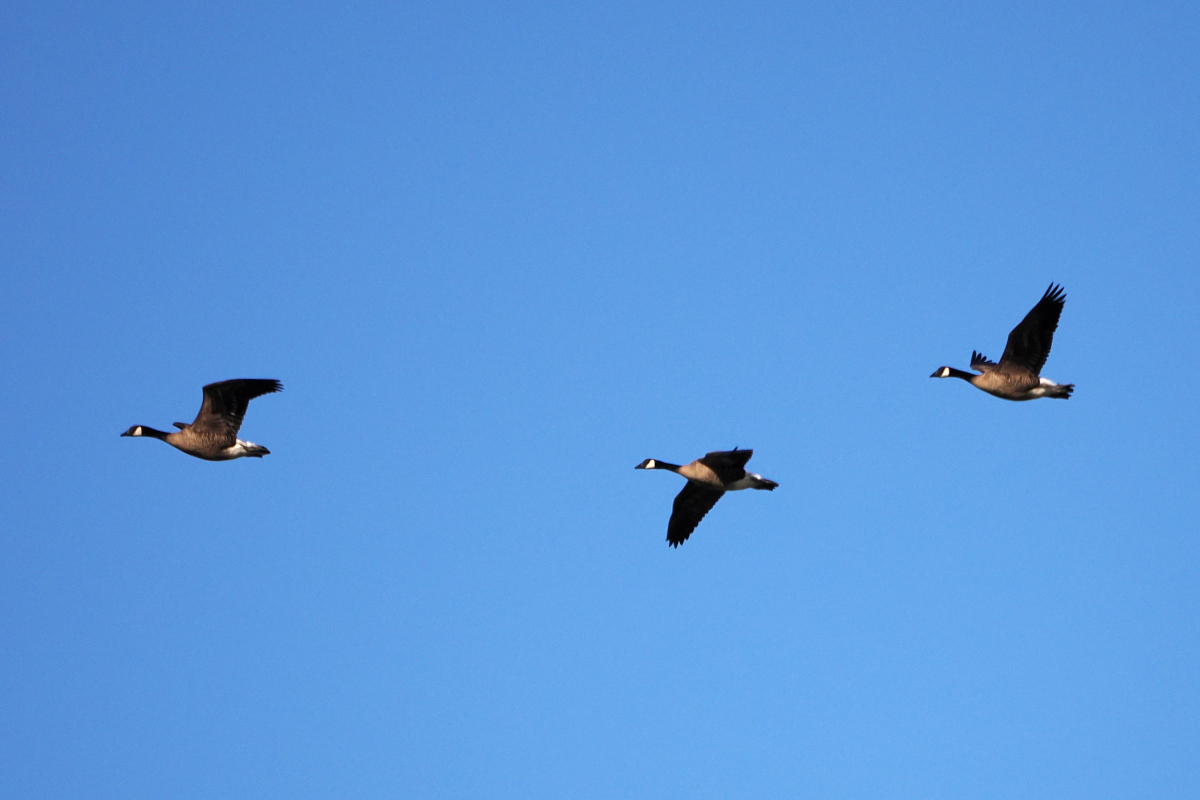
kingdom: Animalia
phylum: Chordata
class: Aves
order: Anseriformes
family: Anatidae
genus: Branta
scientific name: Branta canadensis
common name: Canada goose
